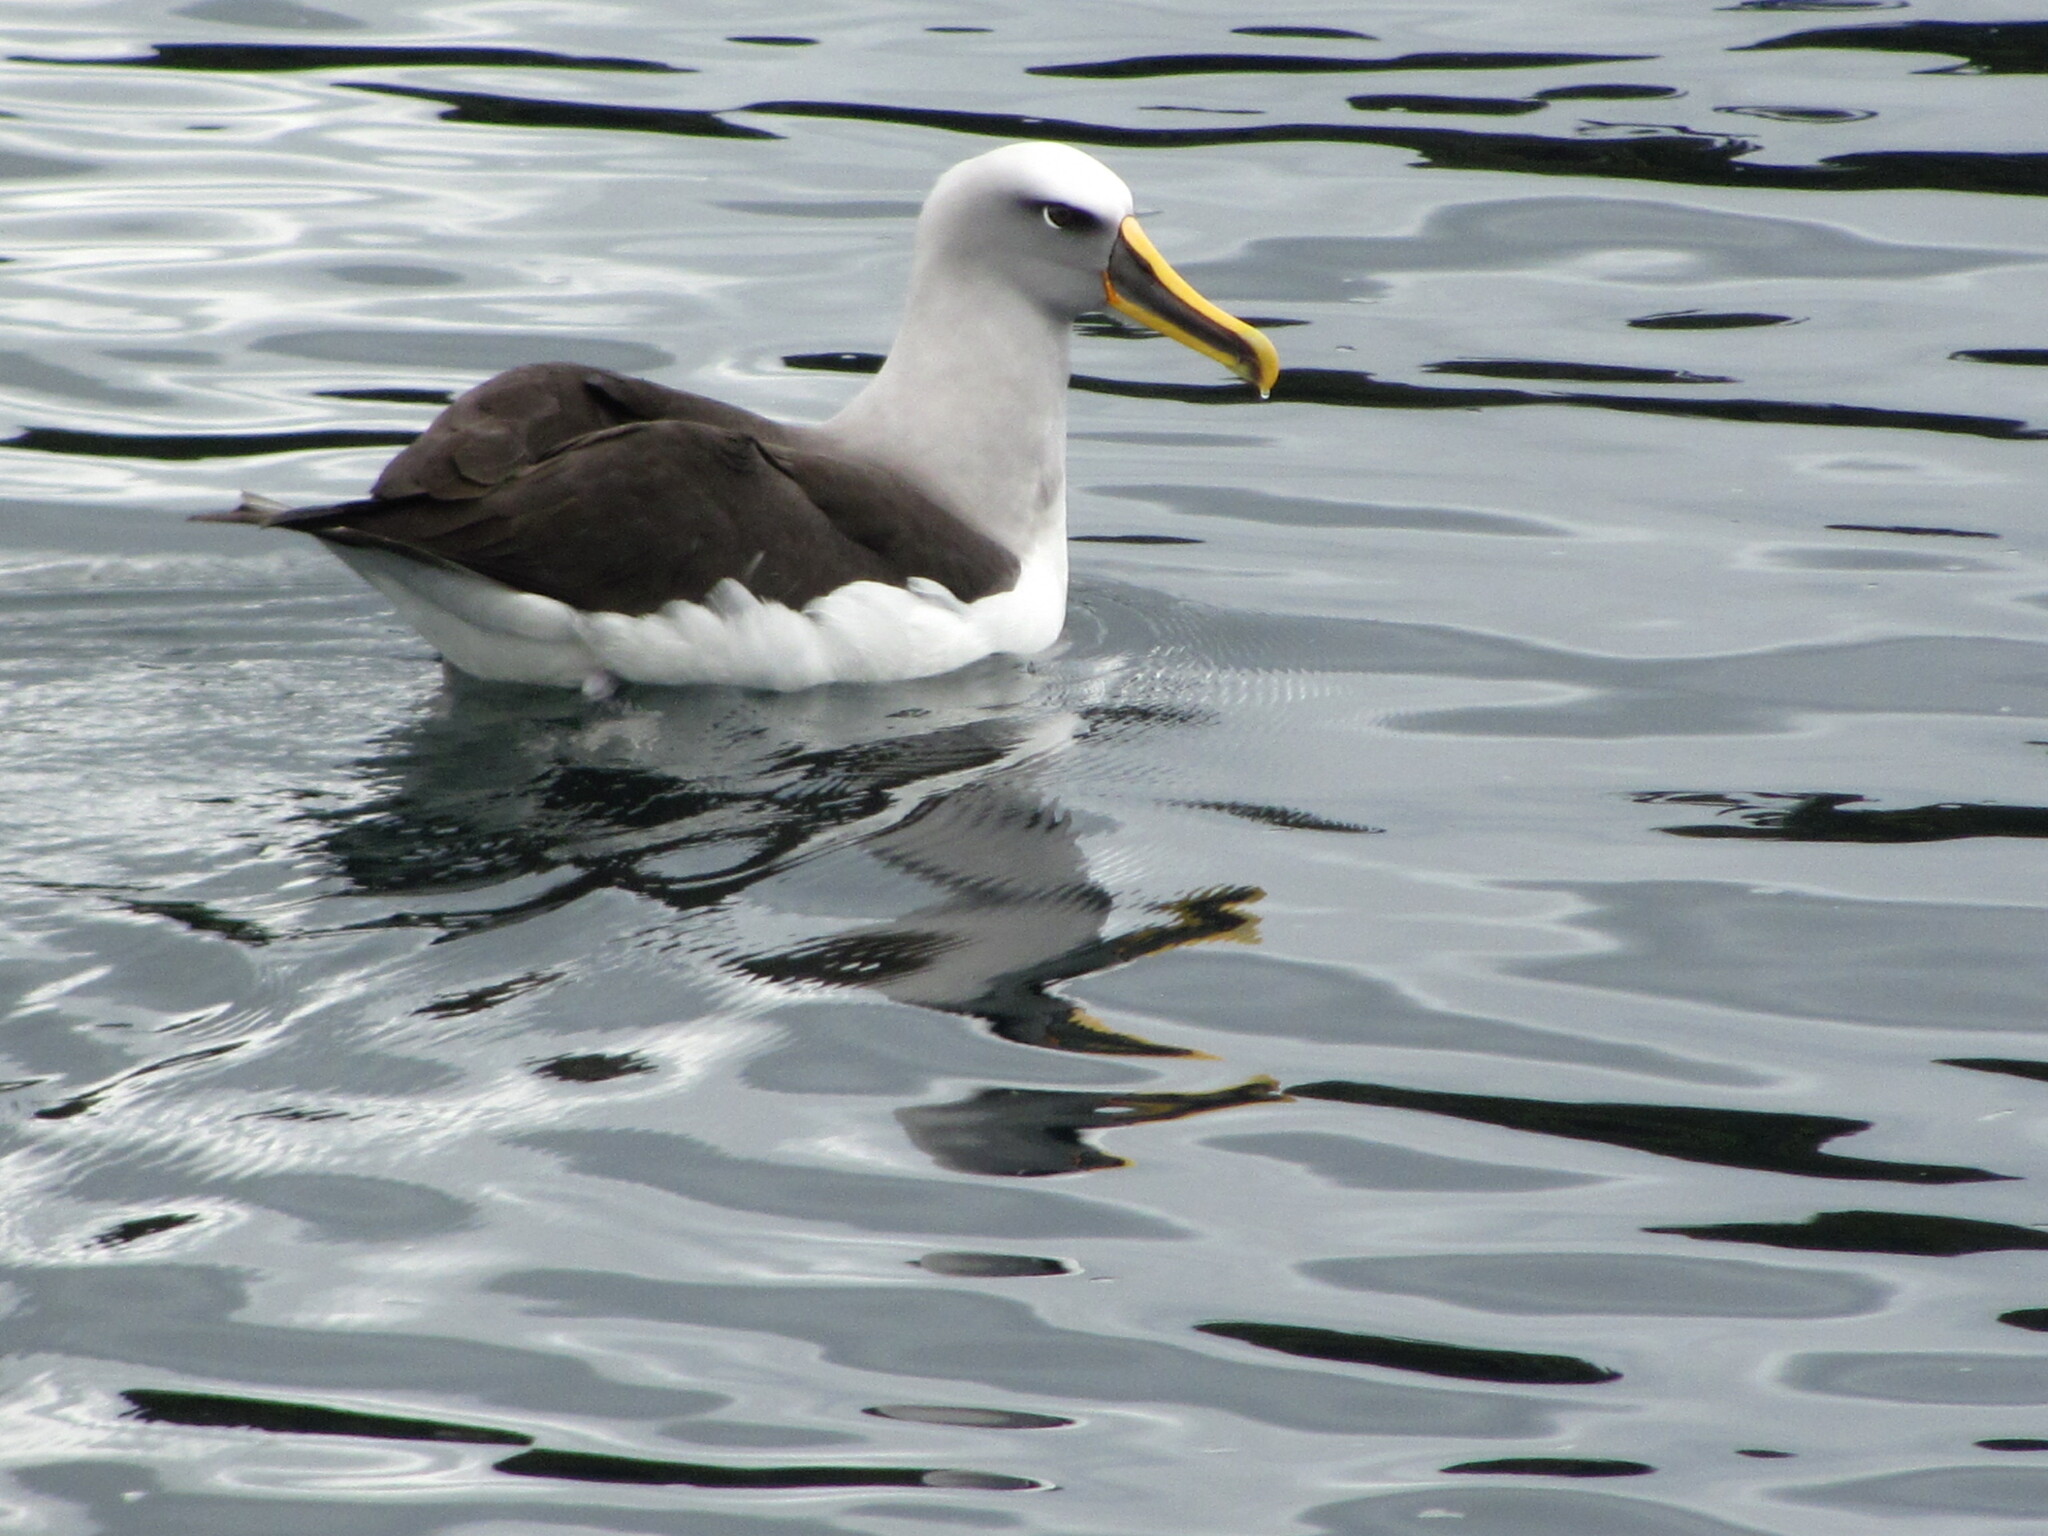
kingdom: Animalia
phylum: Chordata
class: Aves
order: Procellariiformes
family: Diomedeidae
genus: Thalassarche
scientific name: Thalassarche bulleri
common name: Buller's albatross
